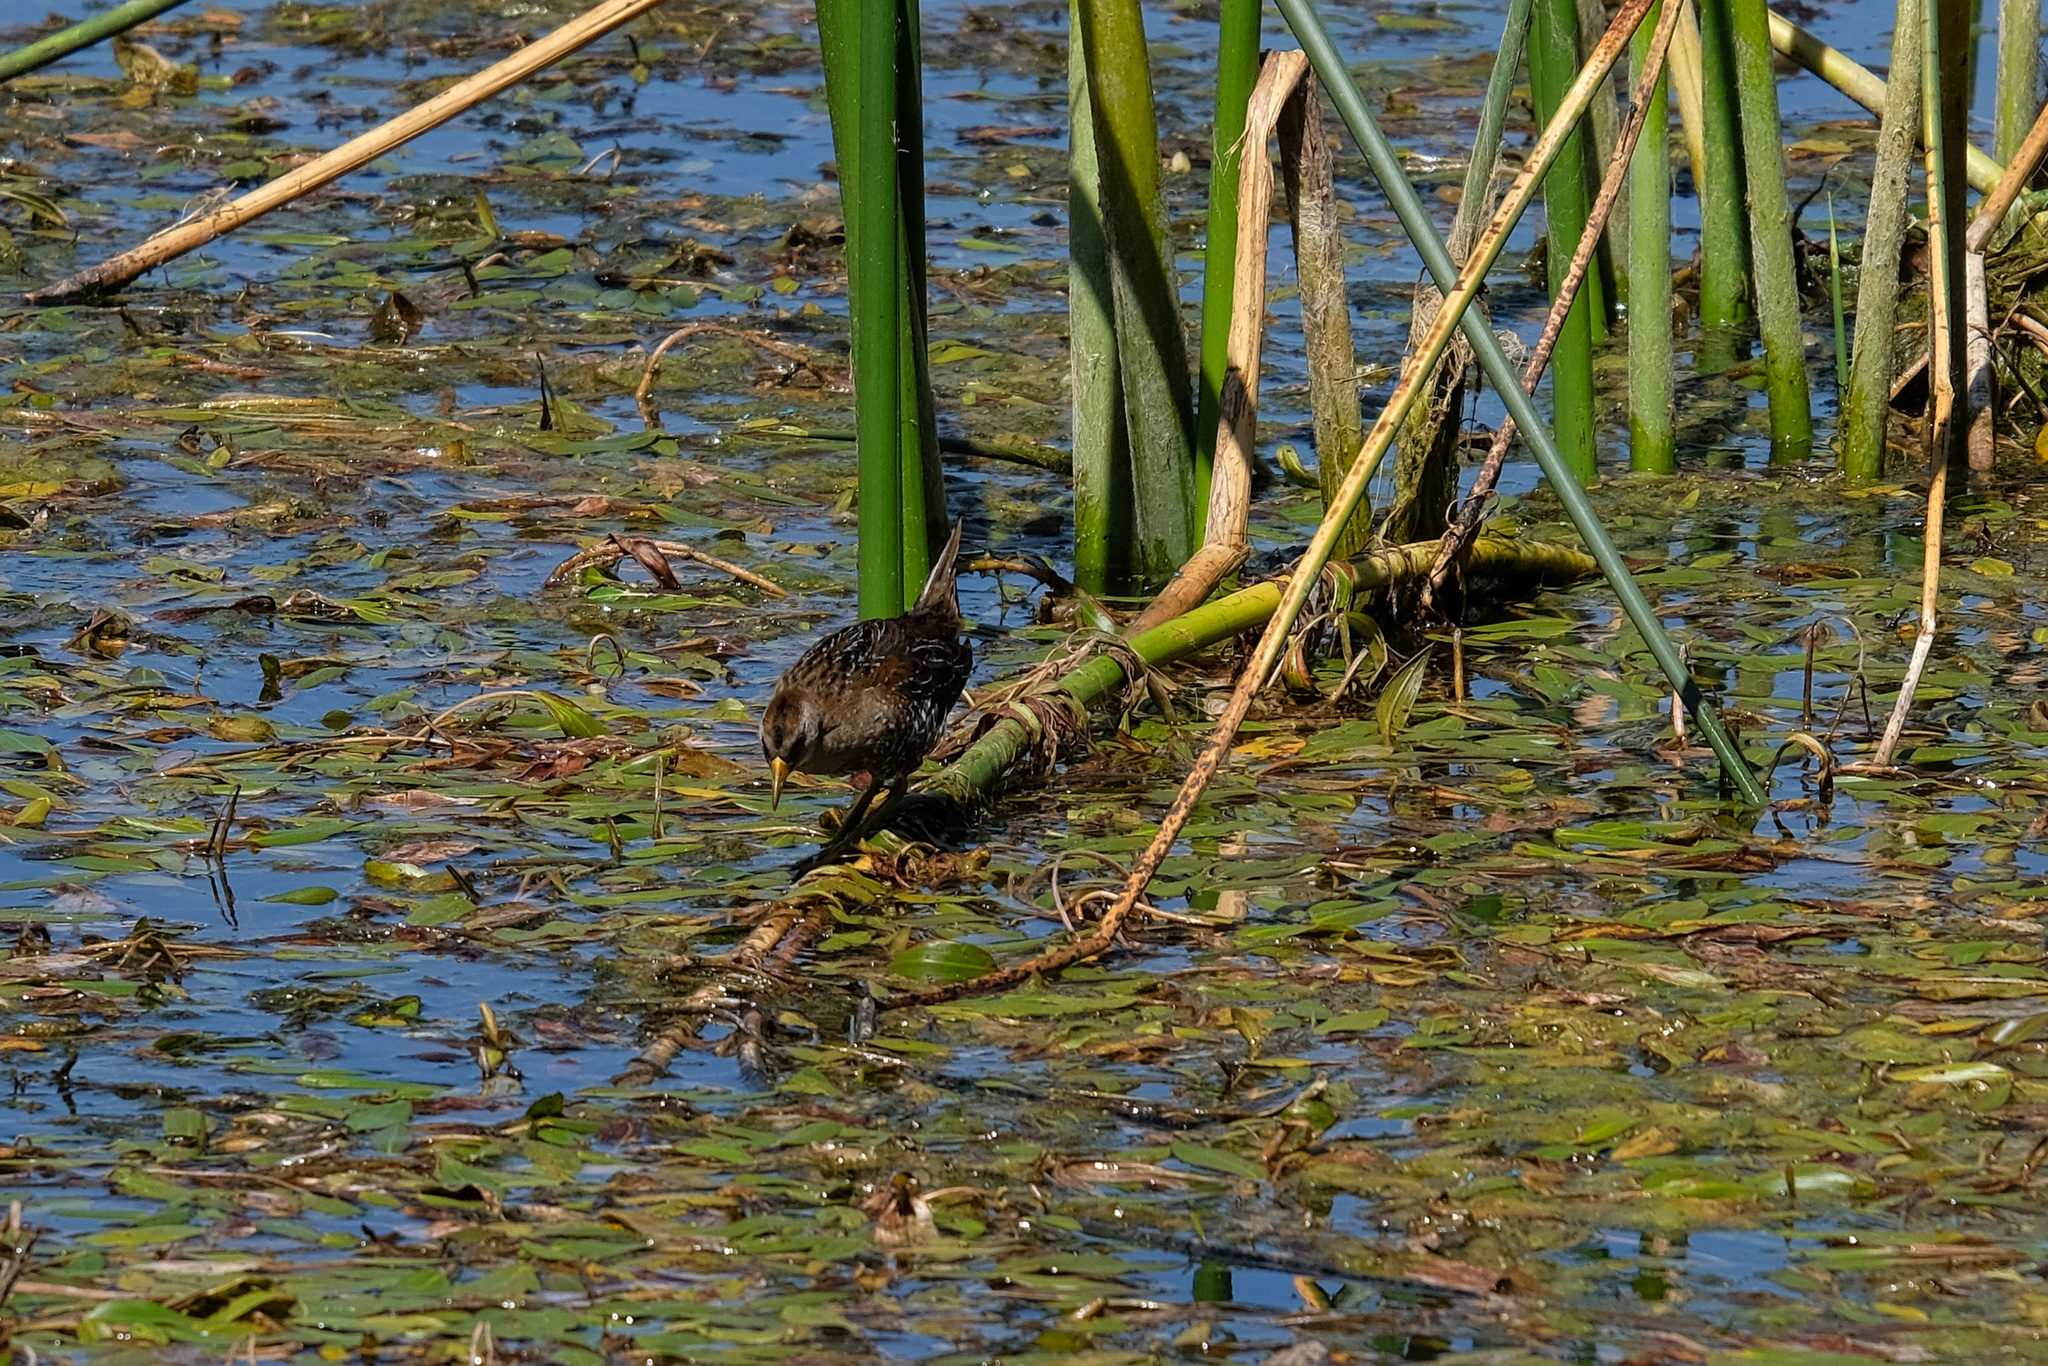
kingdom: Animalia
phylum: Chordata
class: Aves
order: Gruiformes
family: Rallidae
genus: Porzana
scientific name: Porzana carolina
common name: Sora
